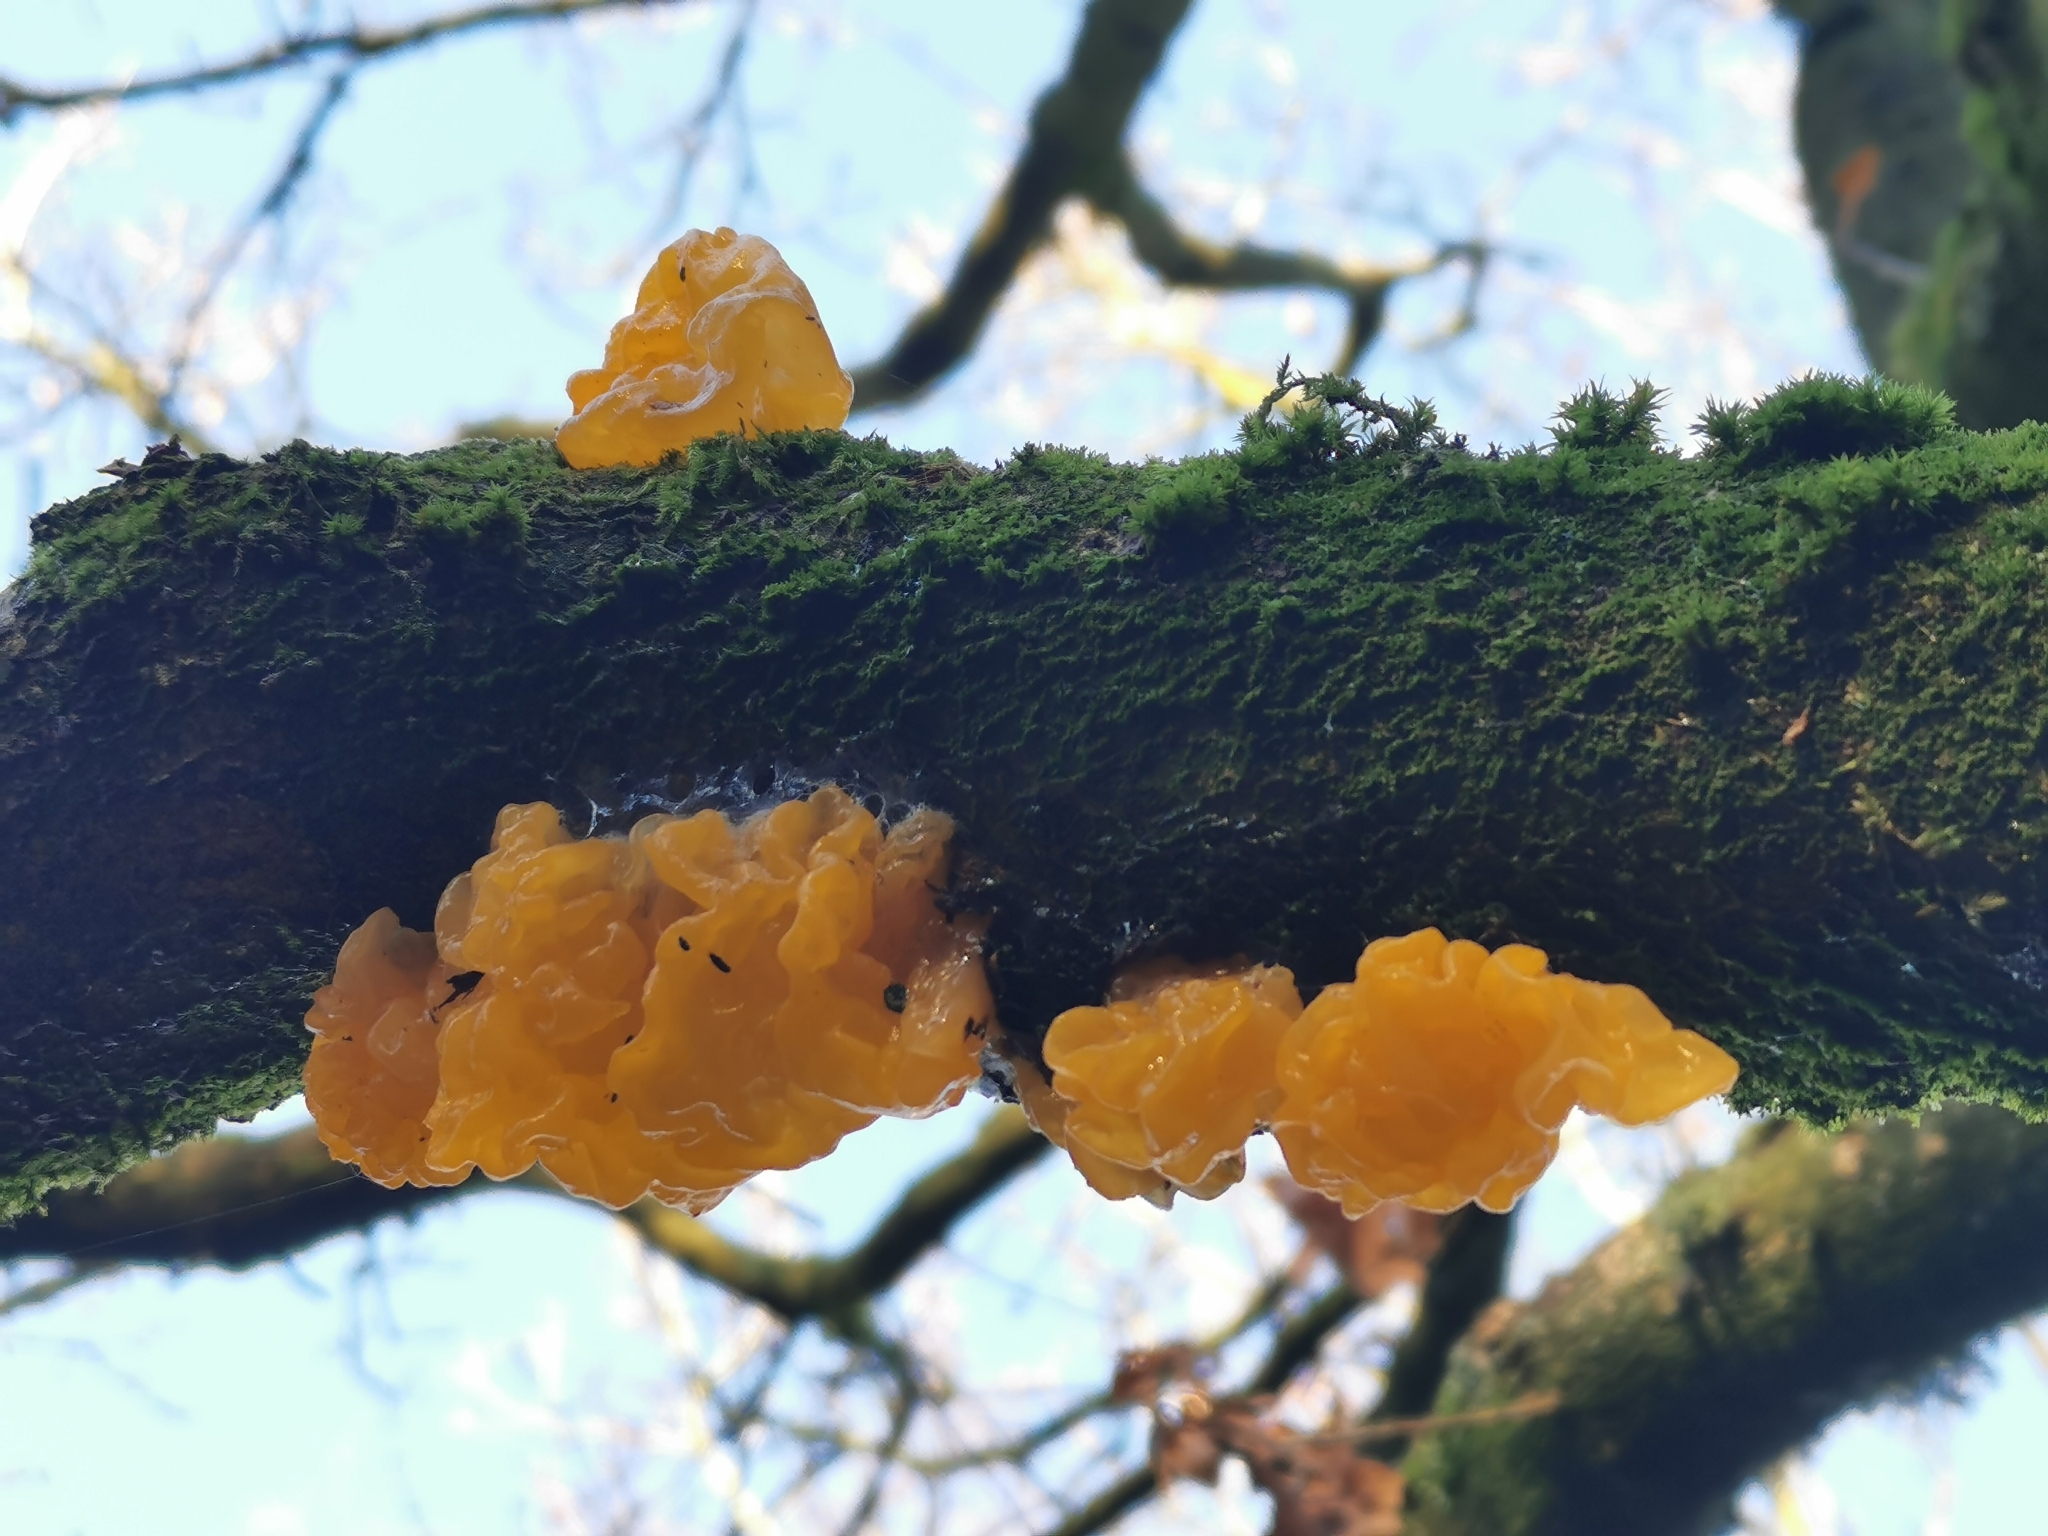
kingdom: Fungi
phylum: Basidiomycota
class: Tremellomycetes
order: Tremellales
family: Tremellaceae
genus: Tremella
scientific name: Tremella mesenterica
